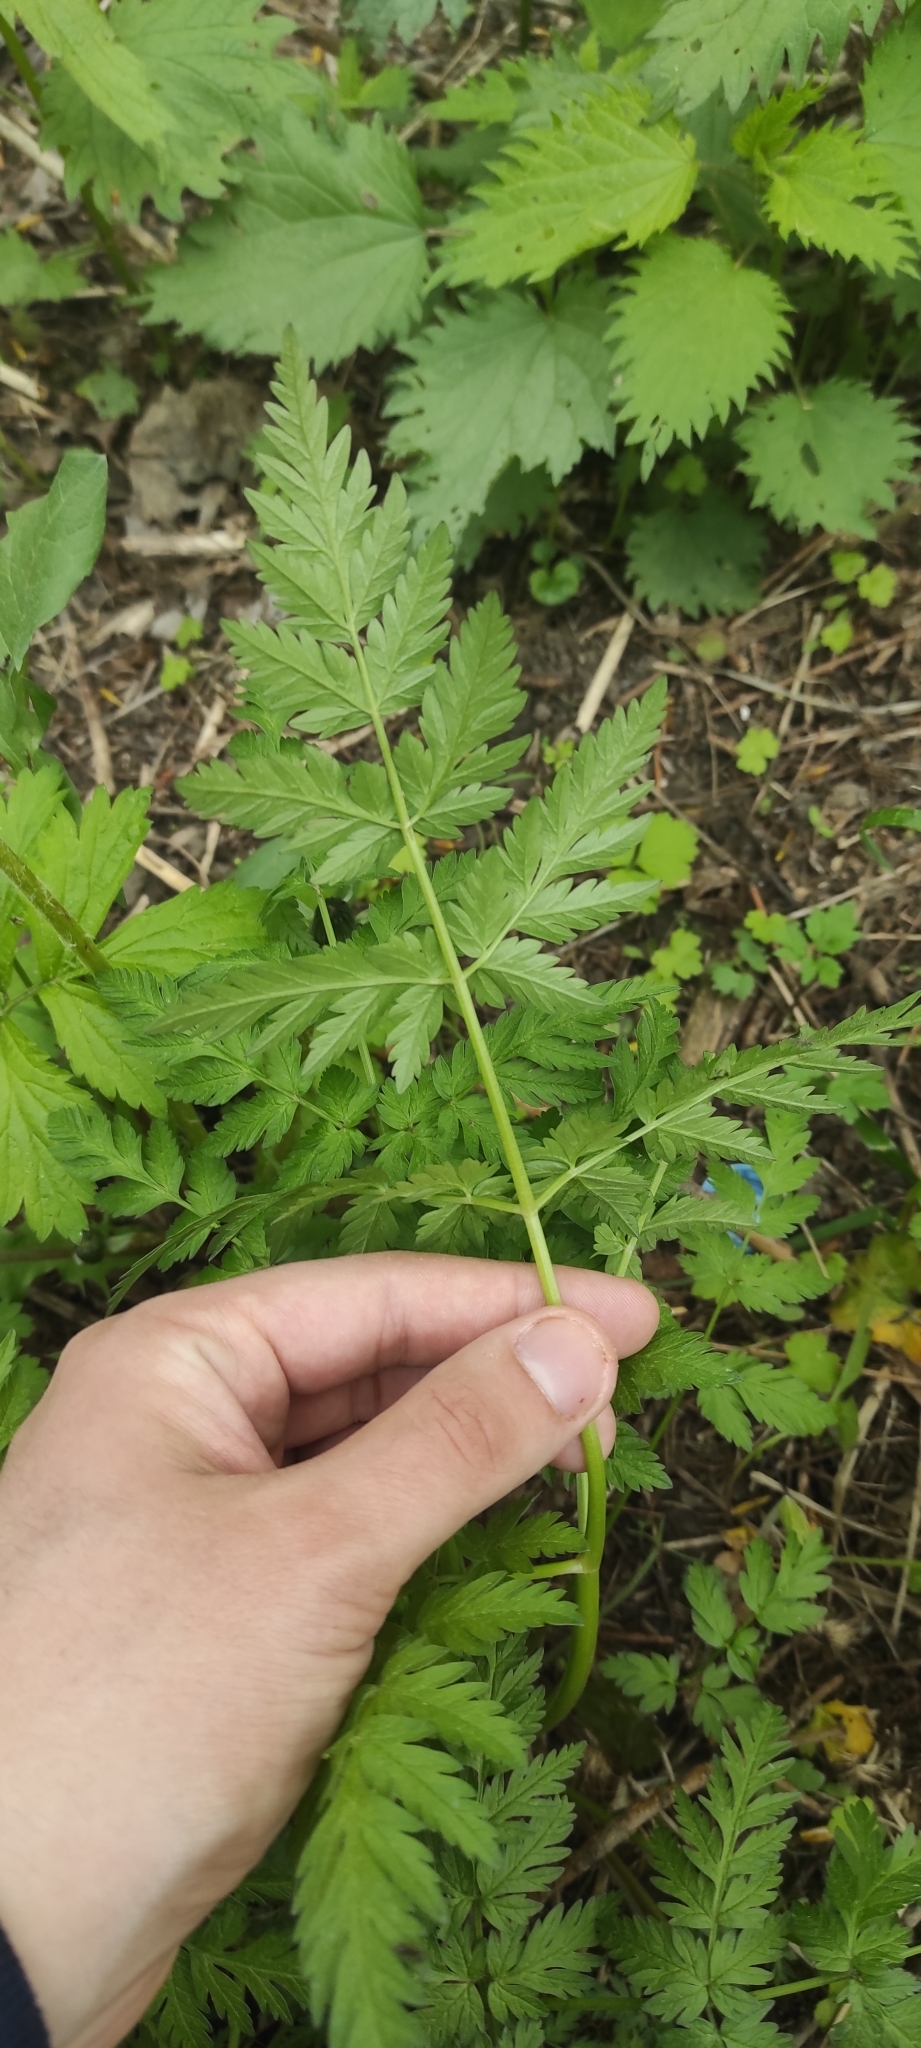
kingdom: Plantae
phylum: Tracheophyta
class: Magnoliopsida
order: Apiales
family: Apiaceae
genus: Anthriscus
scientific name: Anthriscus sylvestris
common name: Cow parsley
